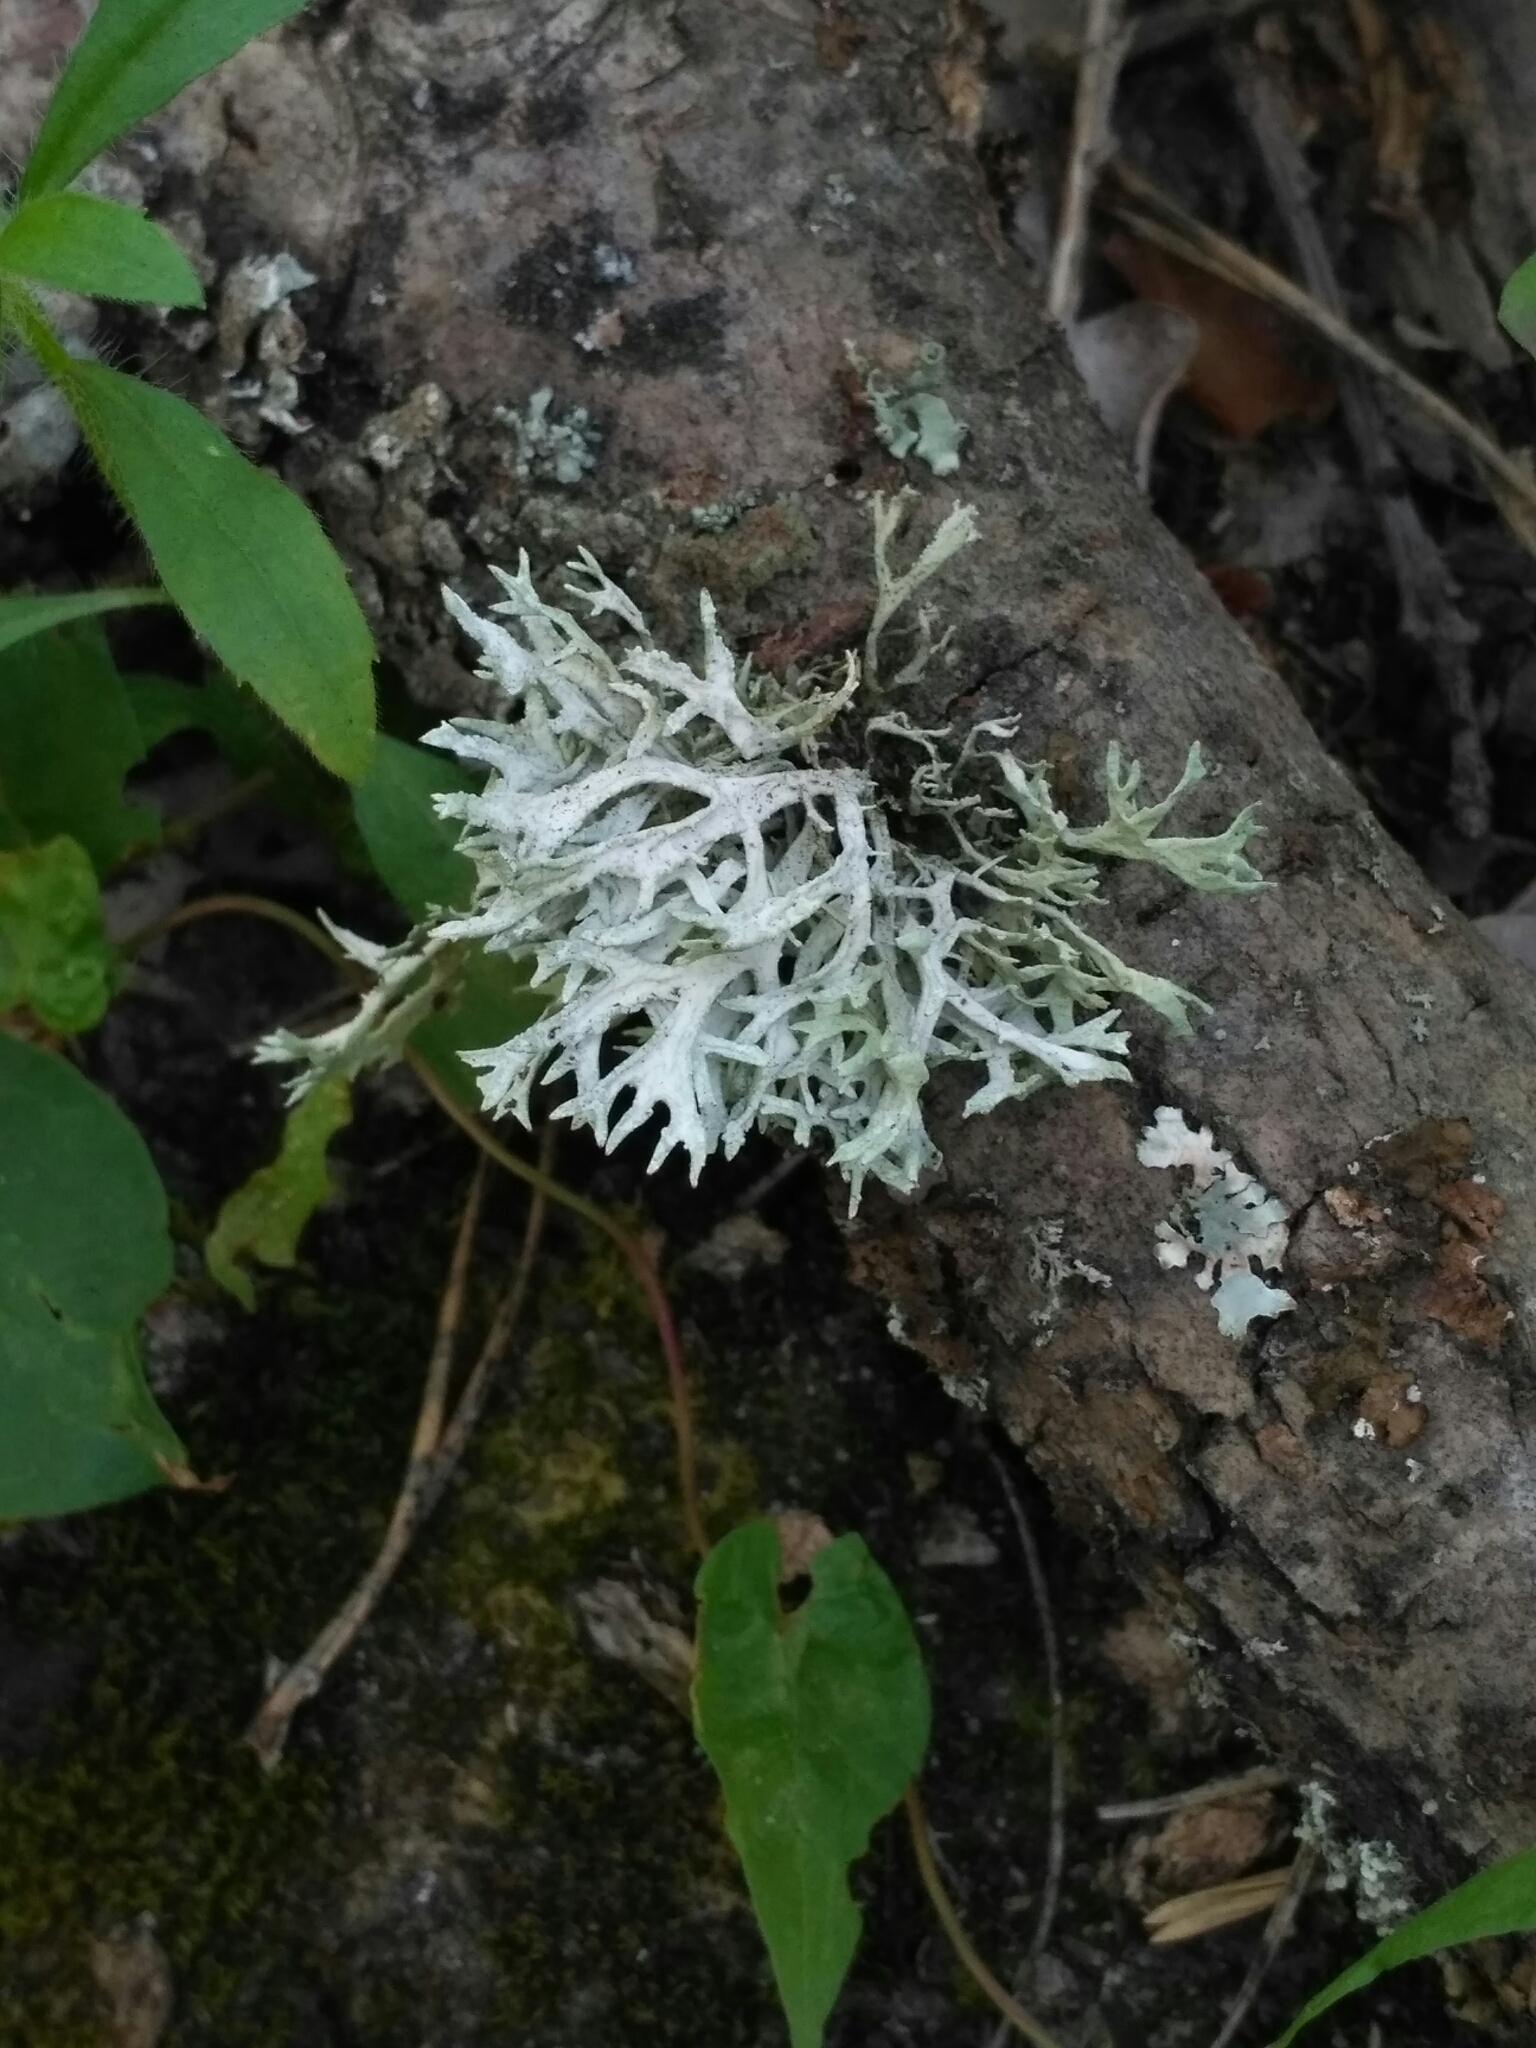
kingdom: Fungi
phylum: Ascomycota
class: Lecanoromycetes
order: Lecanorales
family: Parmeliaceae
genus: Evernia
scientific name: Evernia prunastri
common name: Oak moss
